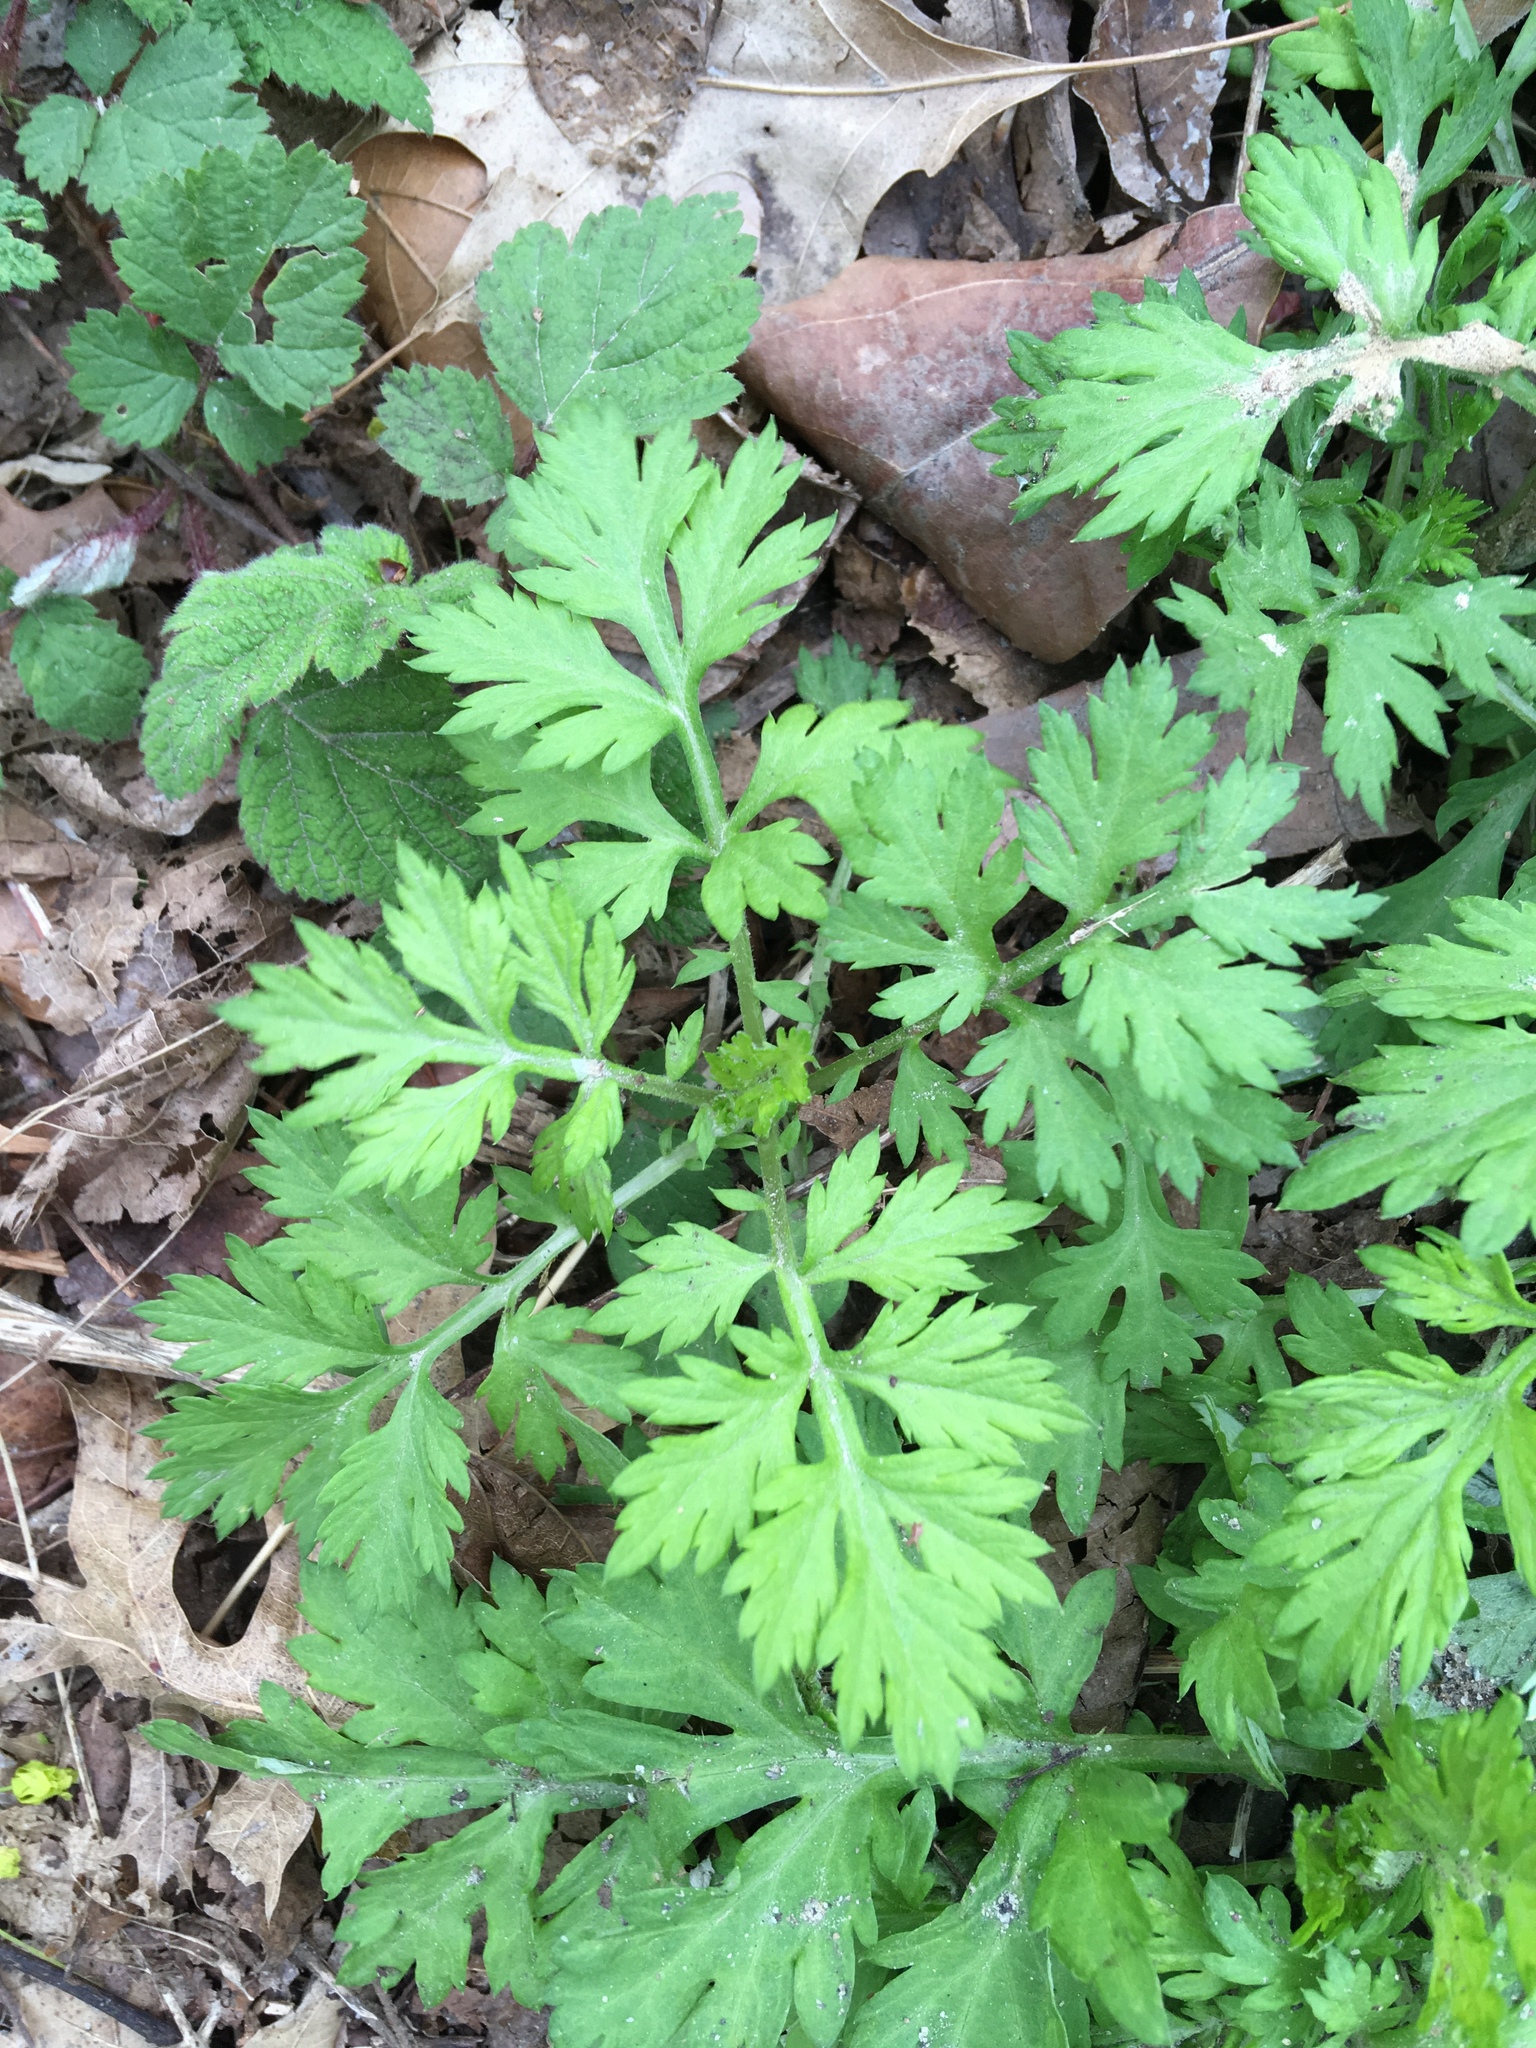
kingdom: Plantae
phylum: Tracheophyta
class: Magnoliopsida
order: Asterales
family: Asteraceae
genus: Artemisia
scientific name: Artemisia vulgaris
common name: Mugwort
